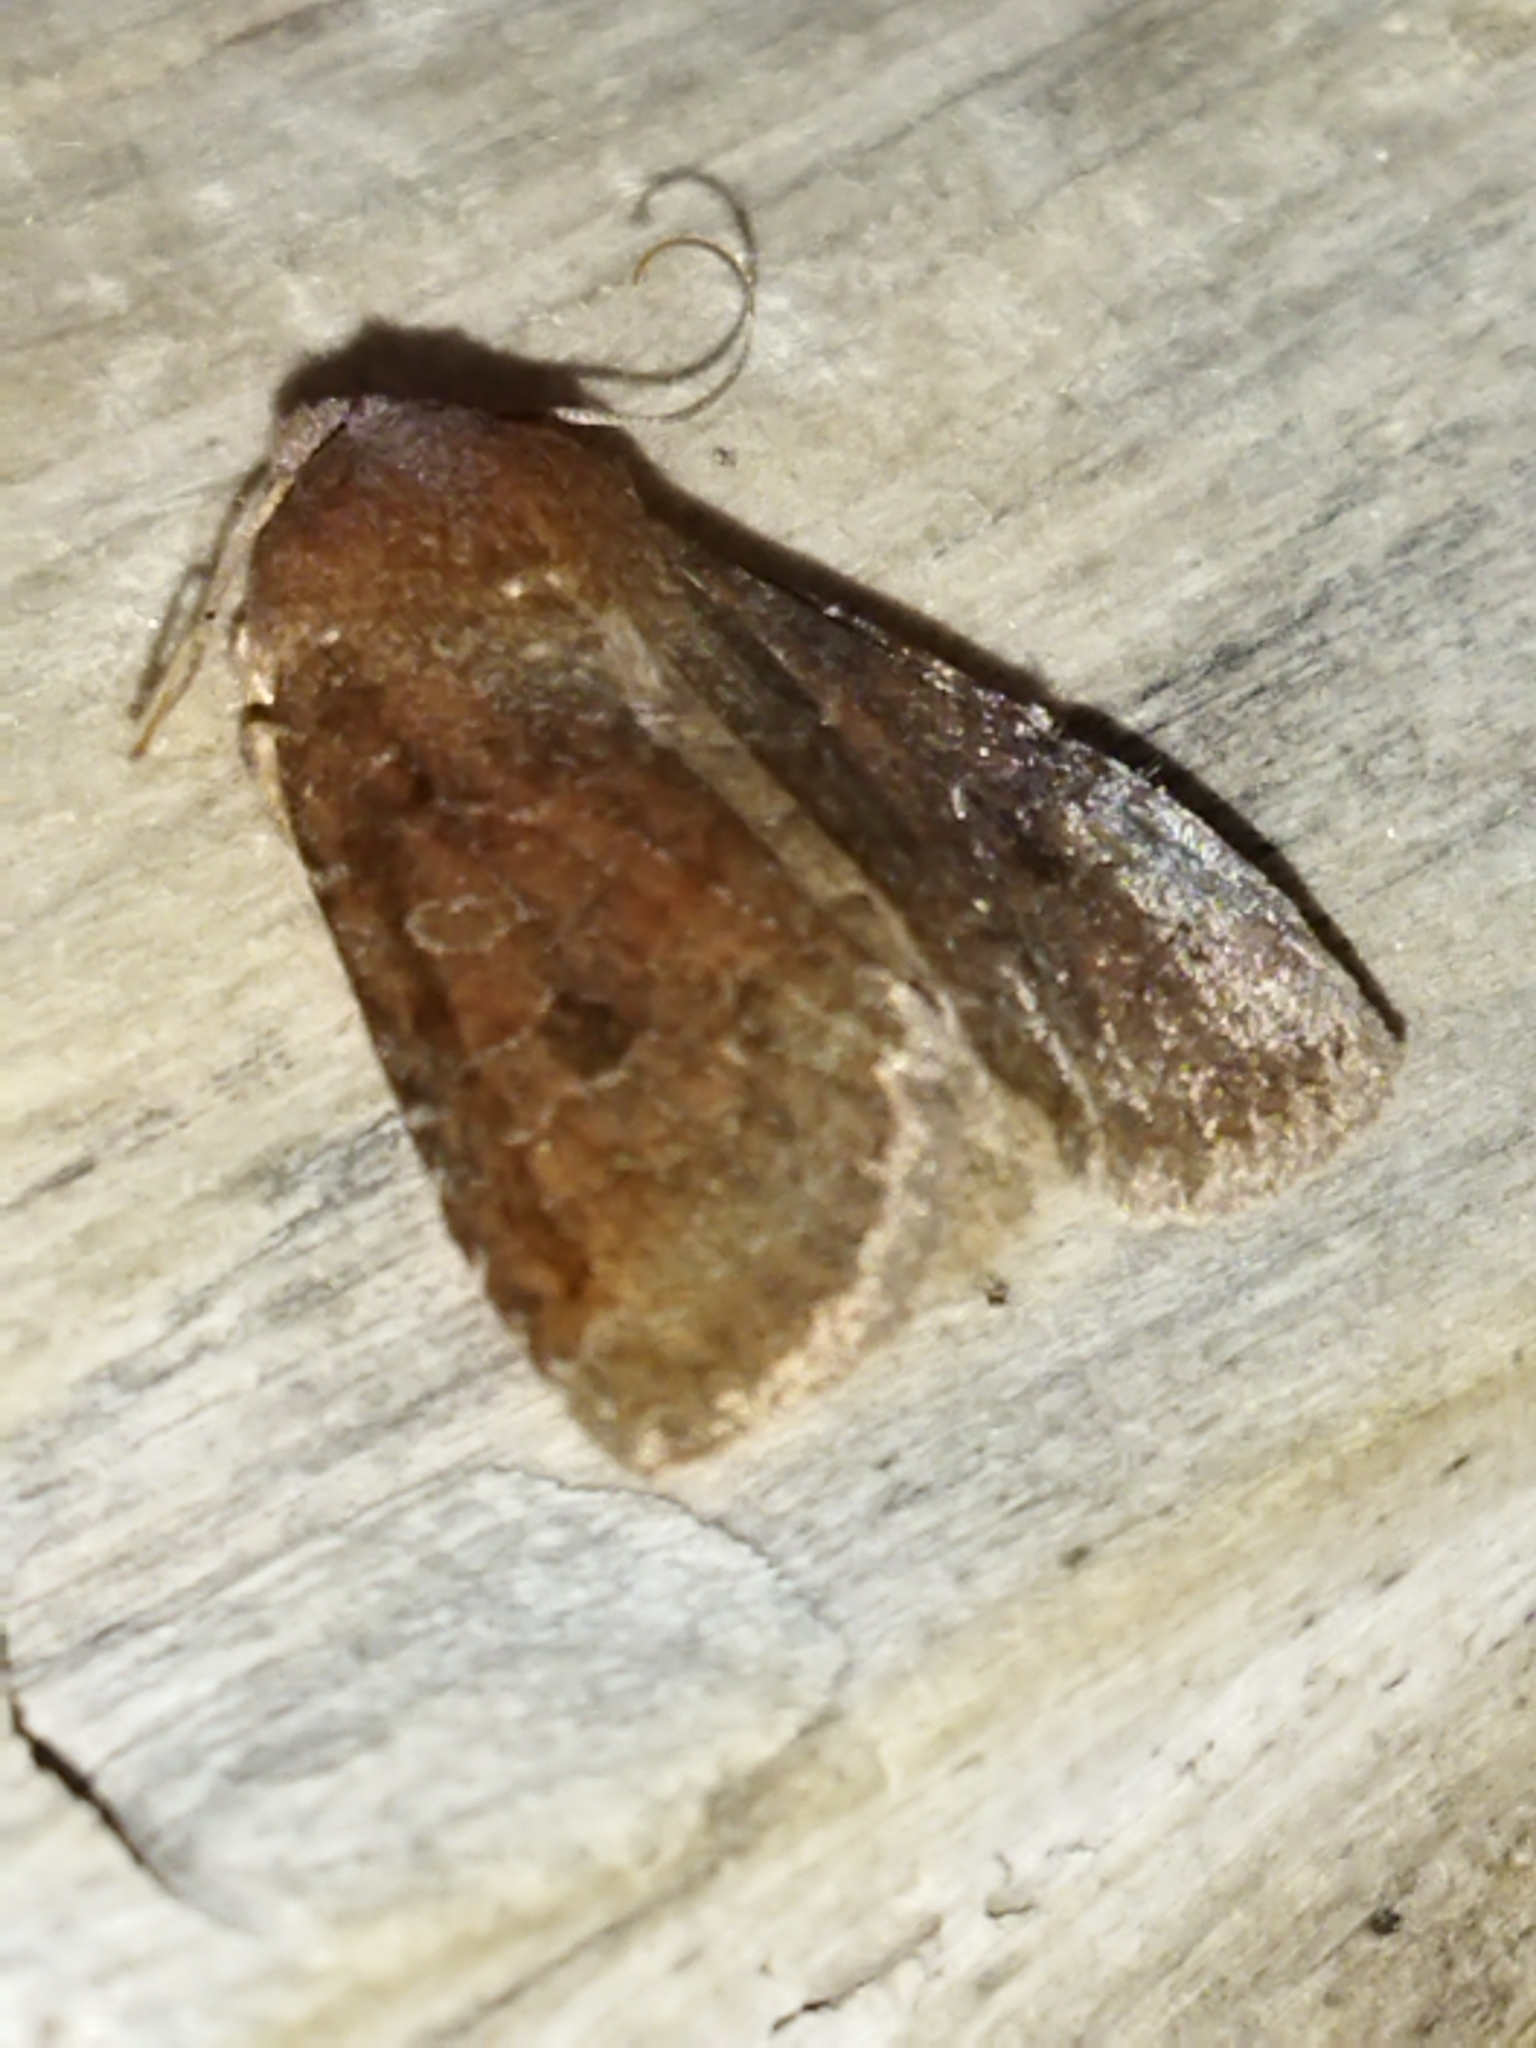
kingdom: Animalia
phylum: Arthropoda
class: Insecta
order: Lepidoptera
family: Noctuidae
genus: Conistra
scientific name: Conistra vaccinii
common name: Chestnut
